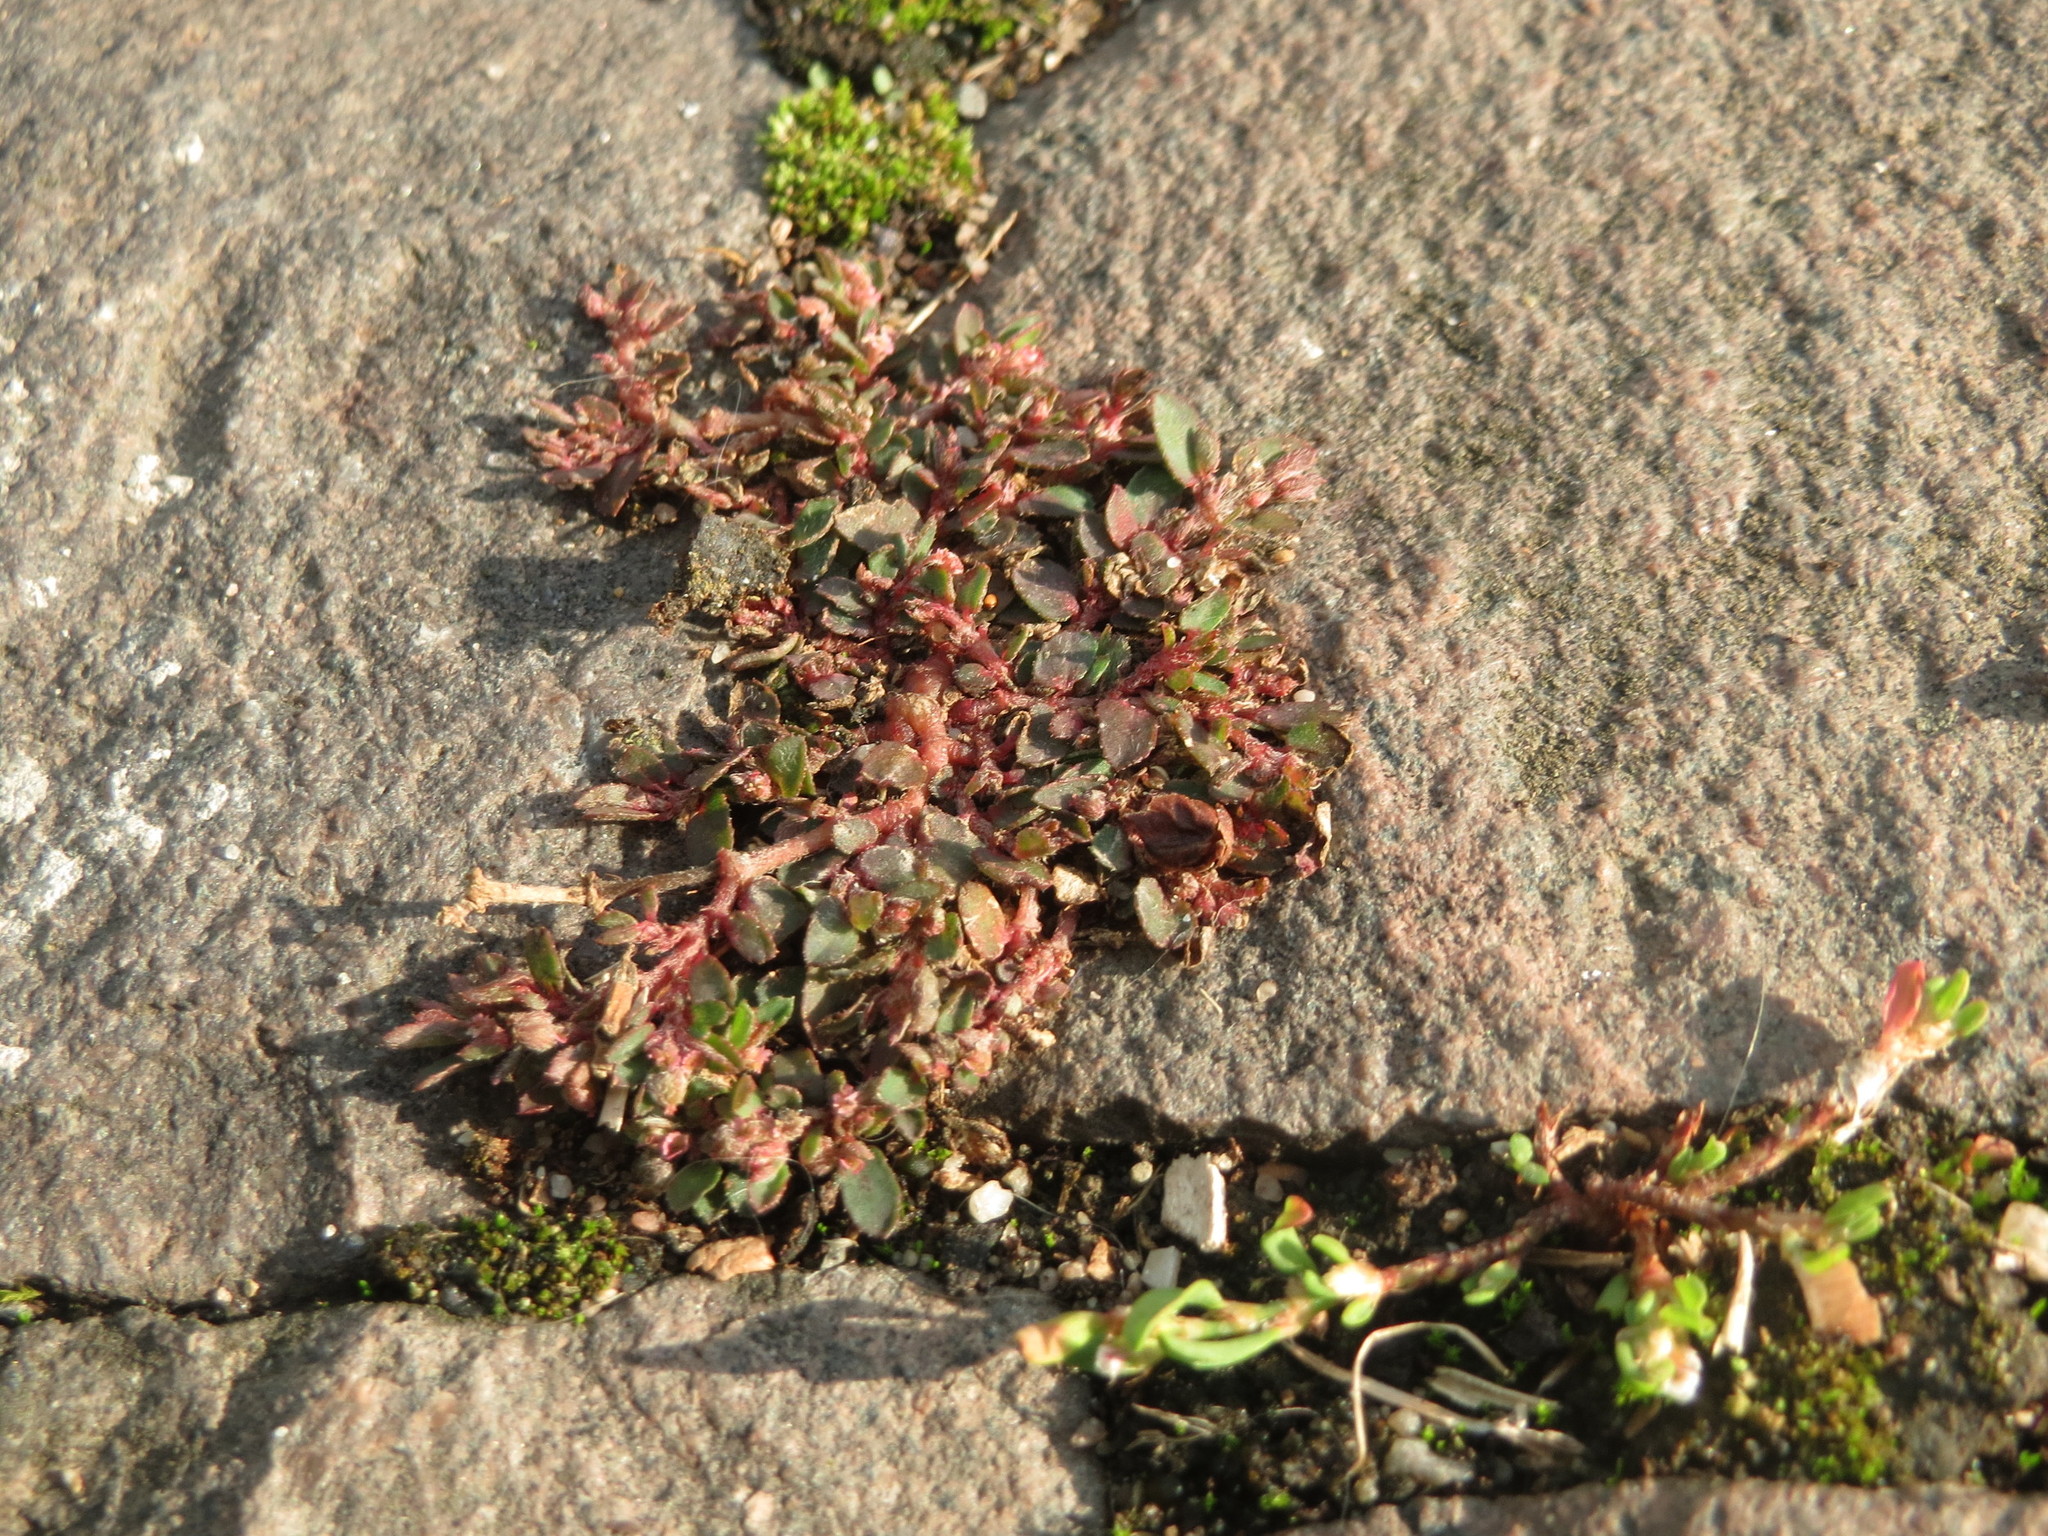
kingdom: Plantae
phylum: Tracheophyta
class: Magnoliopsida
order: Malpighiales
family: Euphorbiaceae
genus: Euphorbia
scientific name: Euphorbia maculata
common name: Spotted spurge
